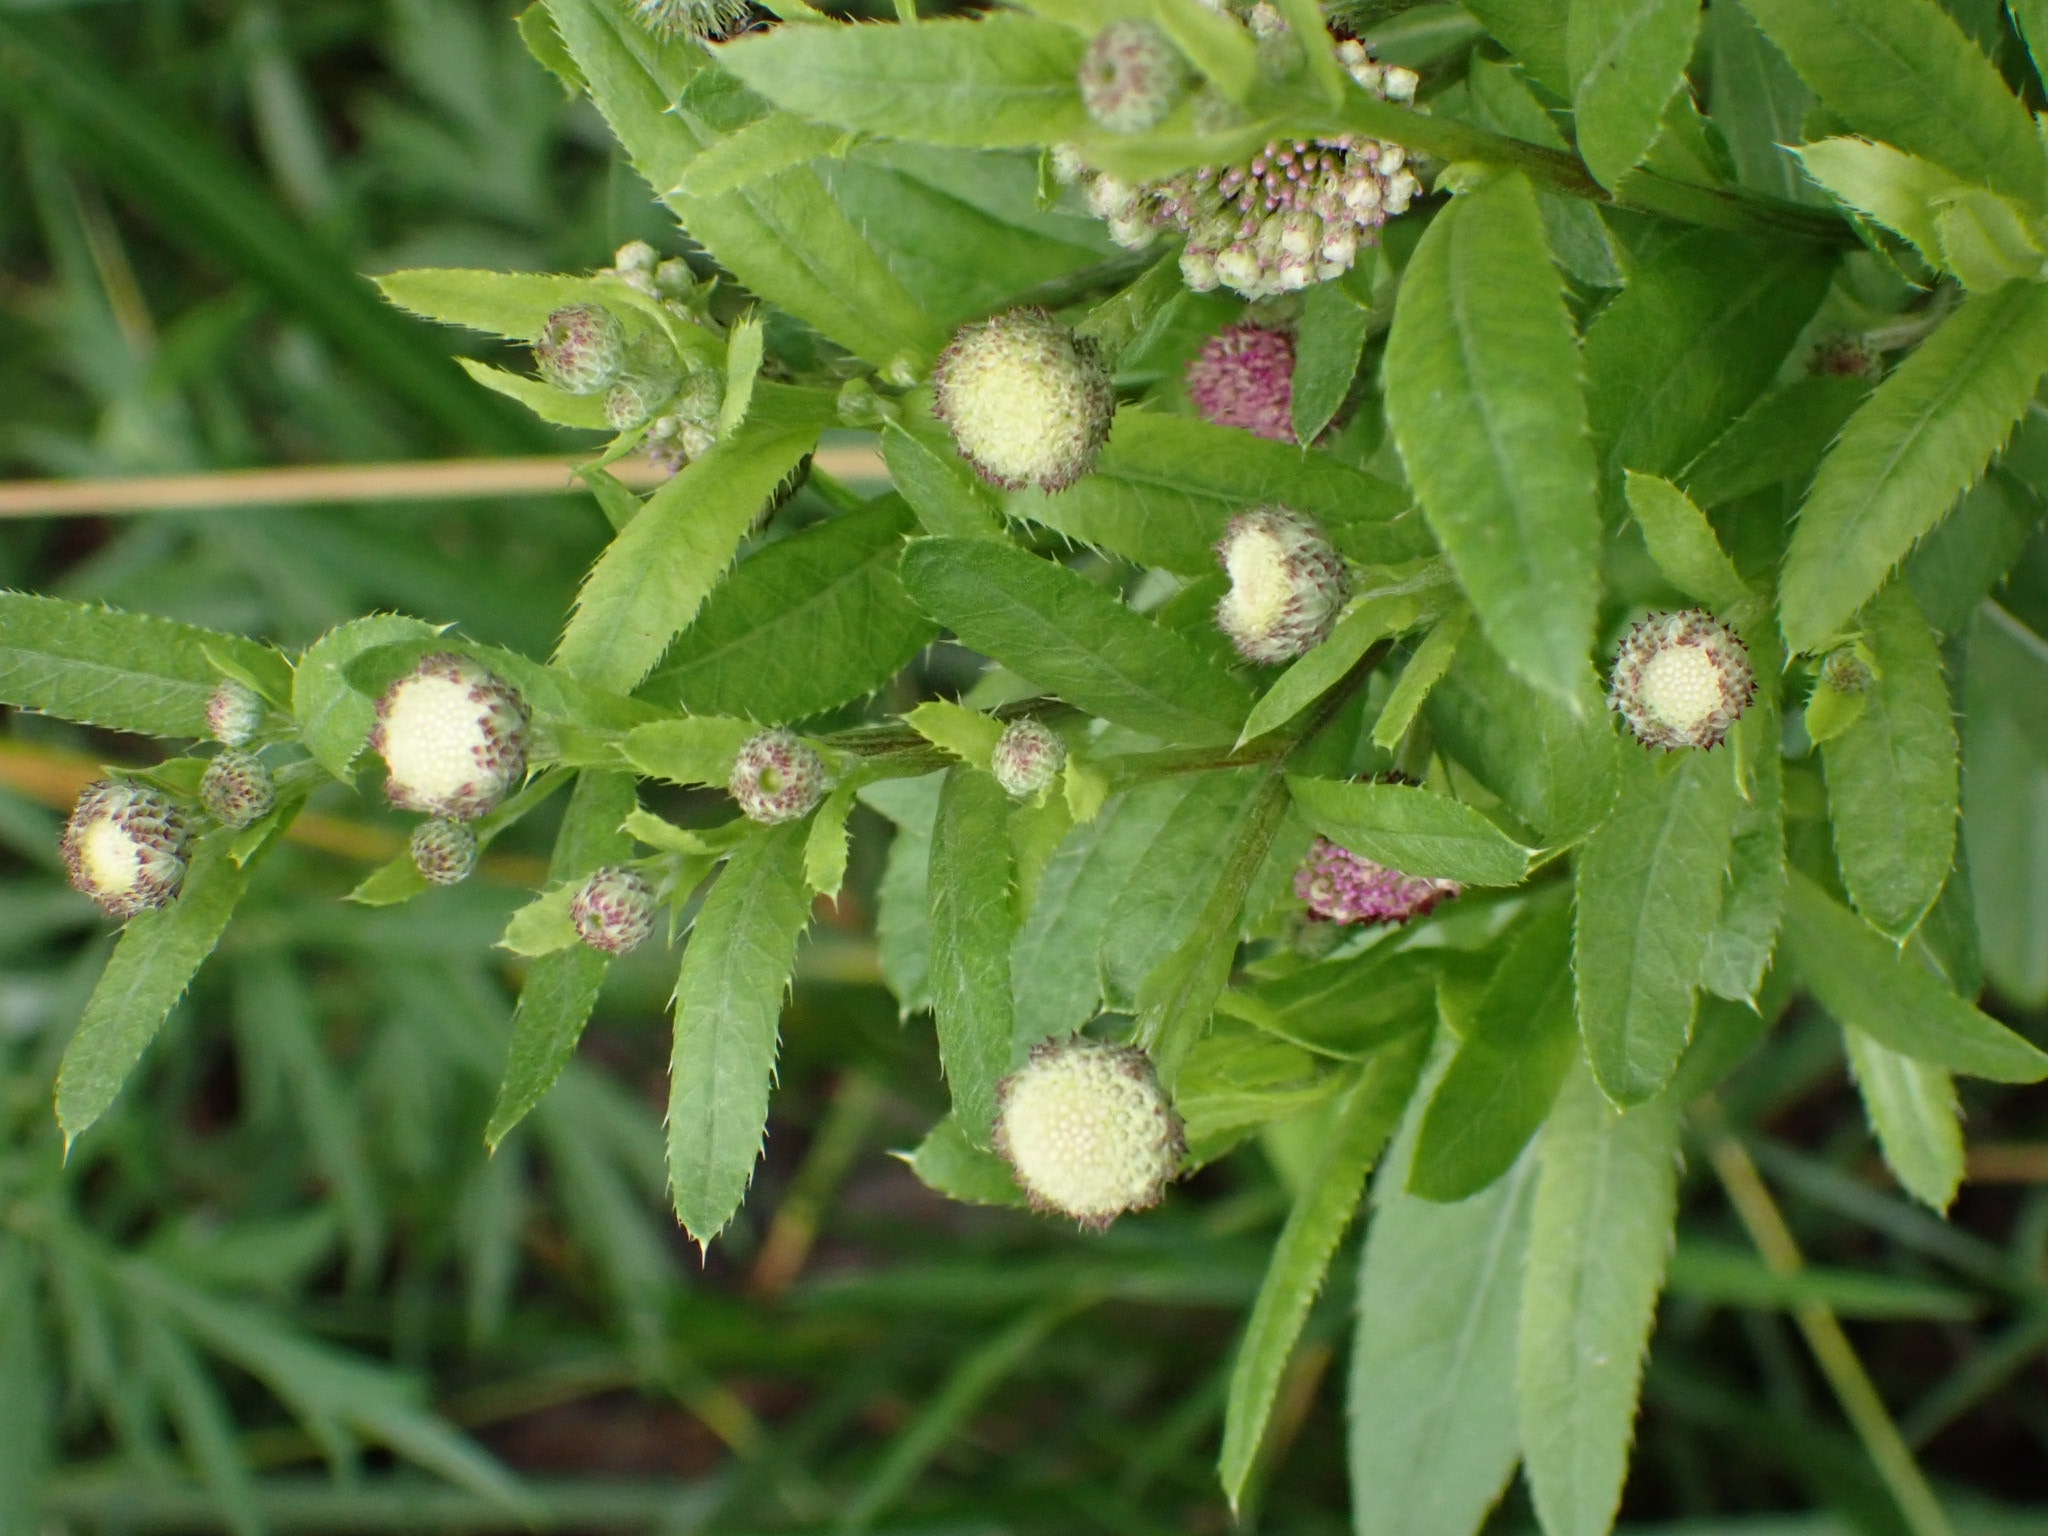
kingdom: Plantae
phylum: Tracheophyta
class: Magnoliopsida
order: Asterales
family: Asteraceae
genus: Cirsium
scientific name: Cirsium arvense
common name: Creeping thistle
